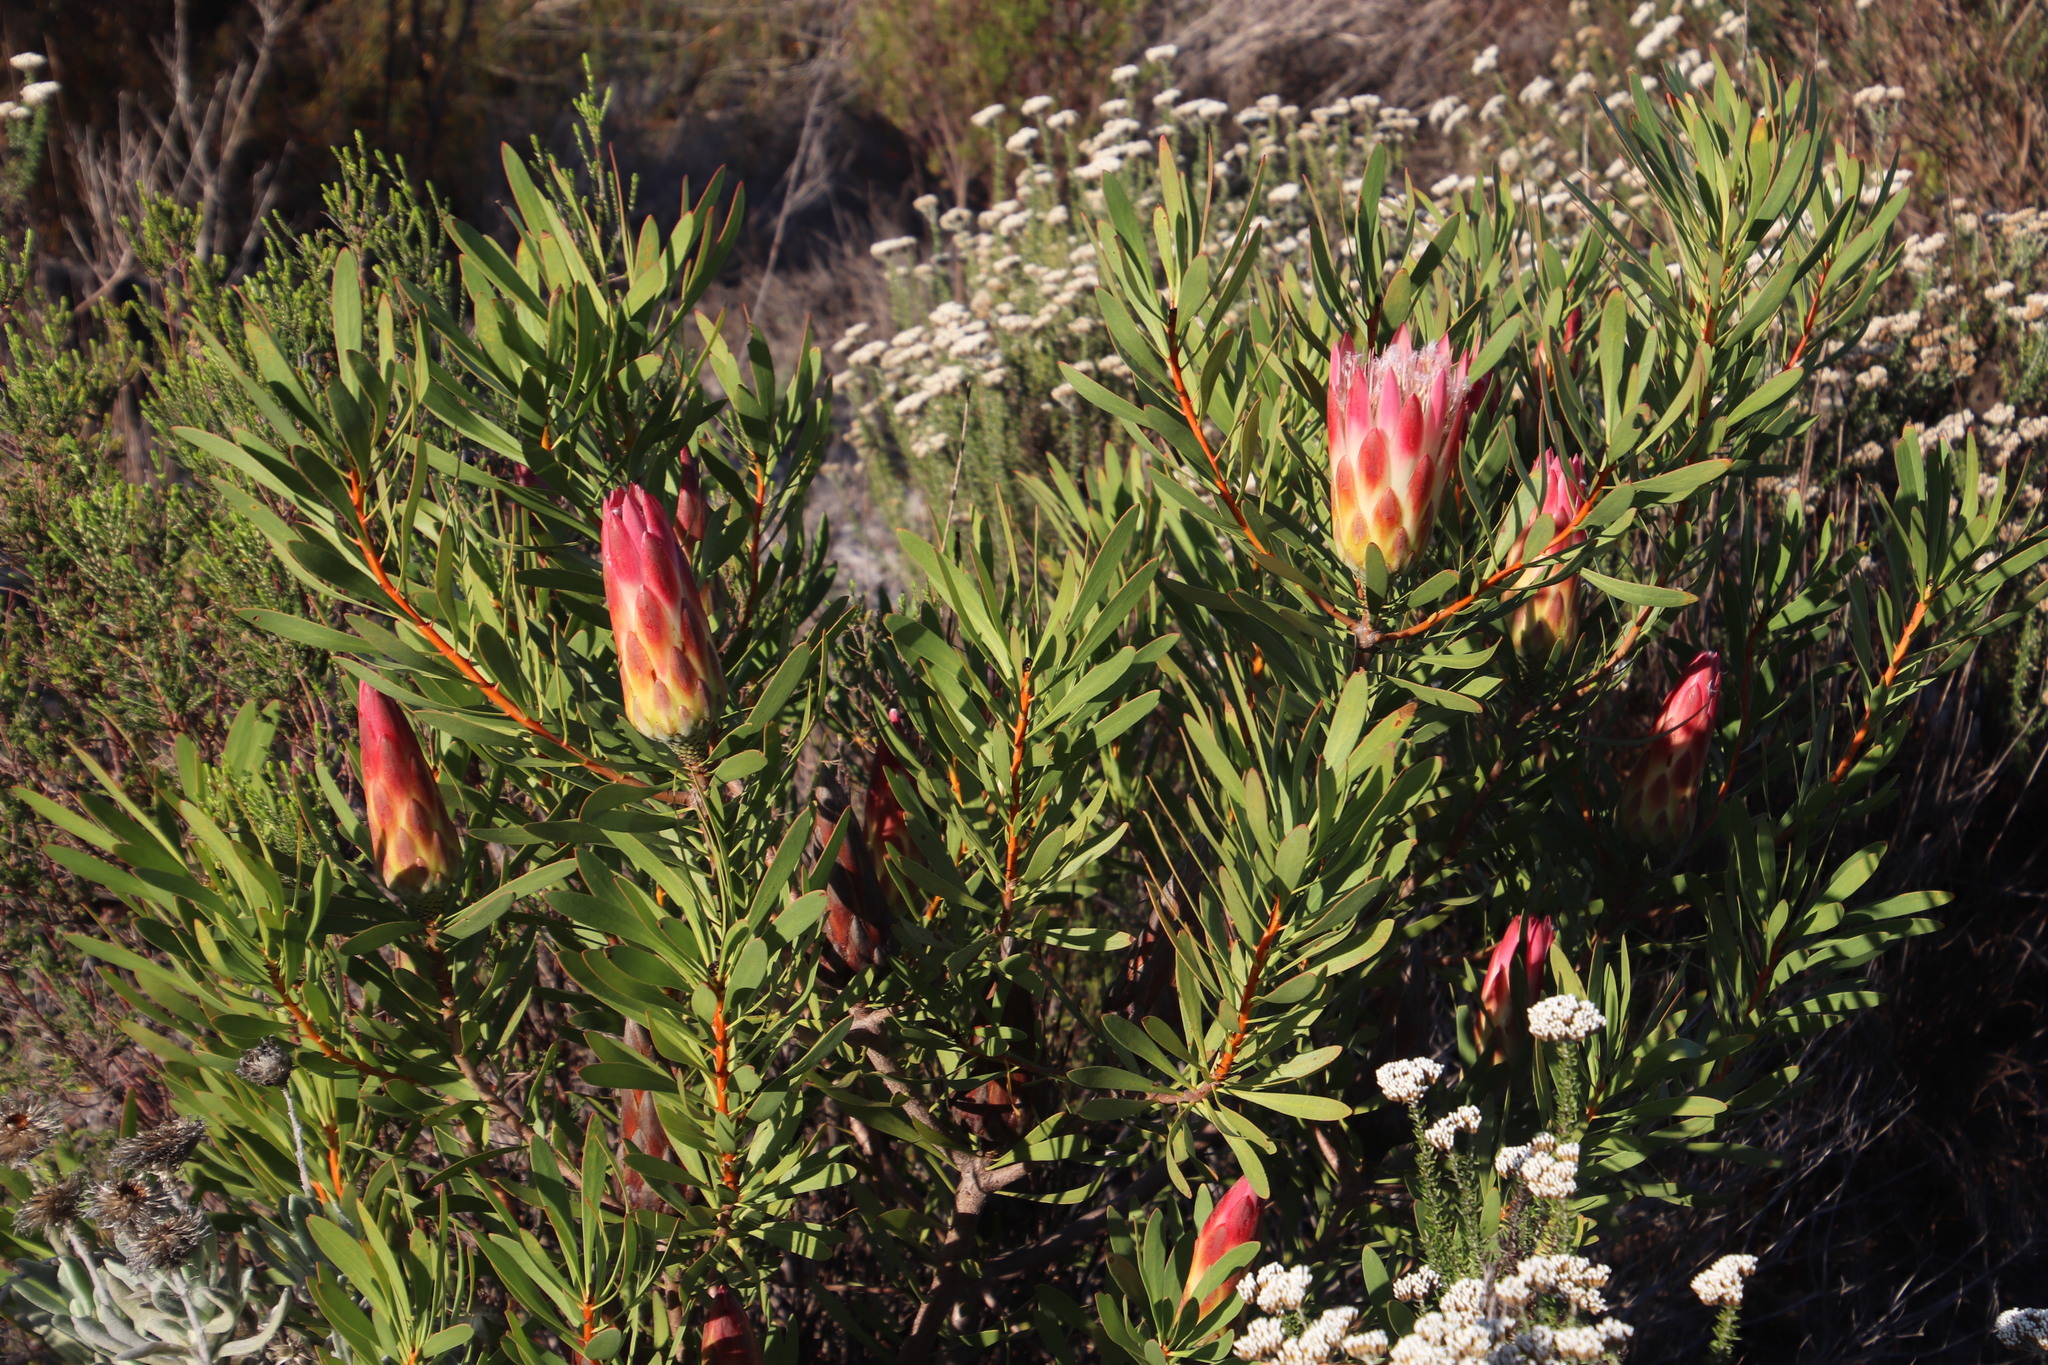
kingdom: Plantae
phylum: Tracheophyta
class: Magnoliopsida
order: Proteales
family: Proteaceae
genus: Protea
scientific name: Protea repens
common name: Sugarbush
